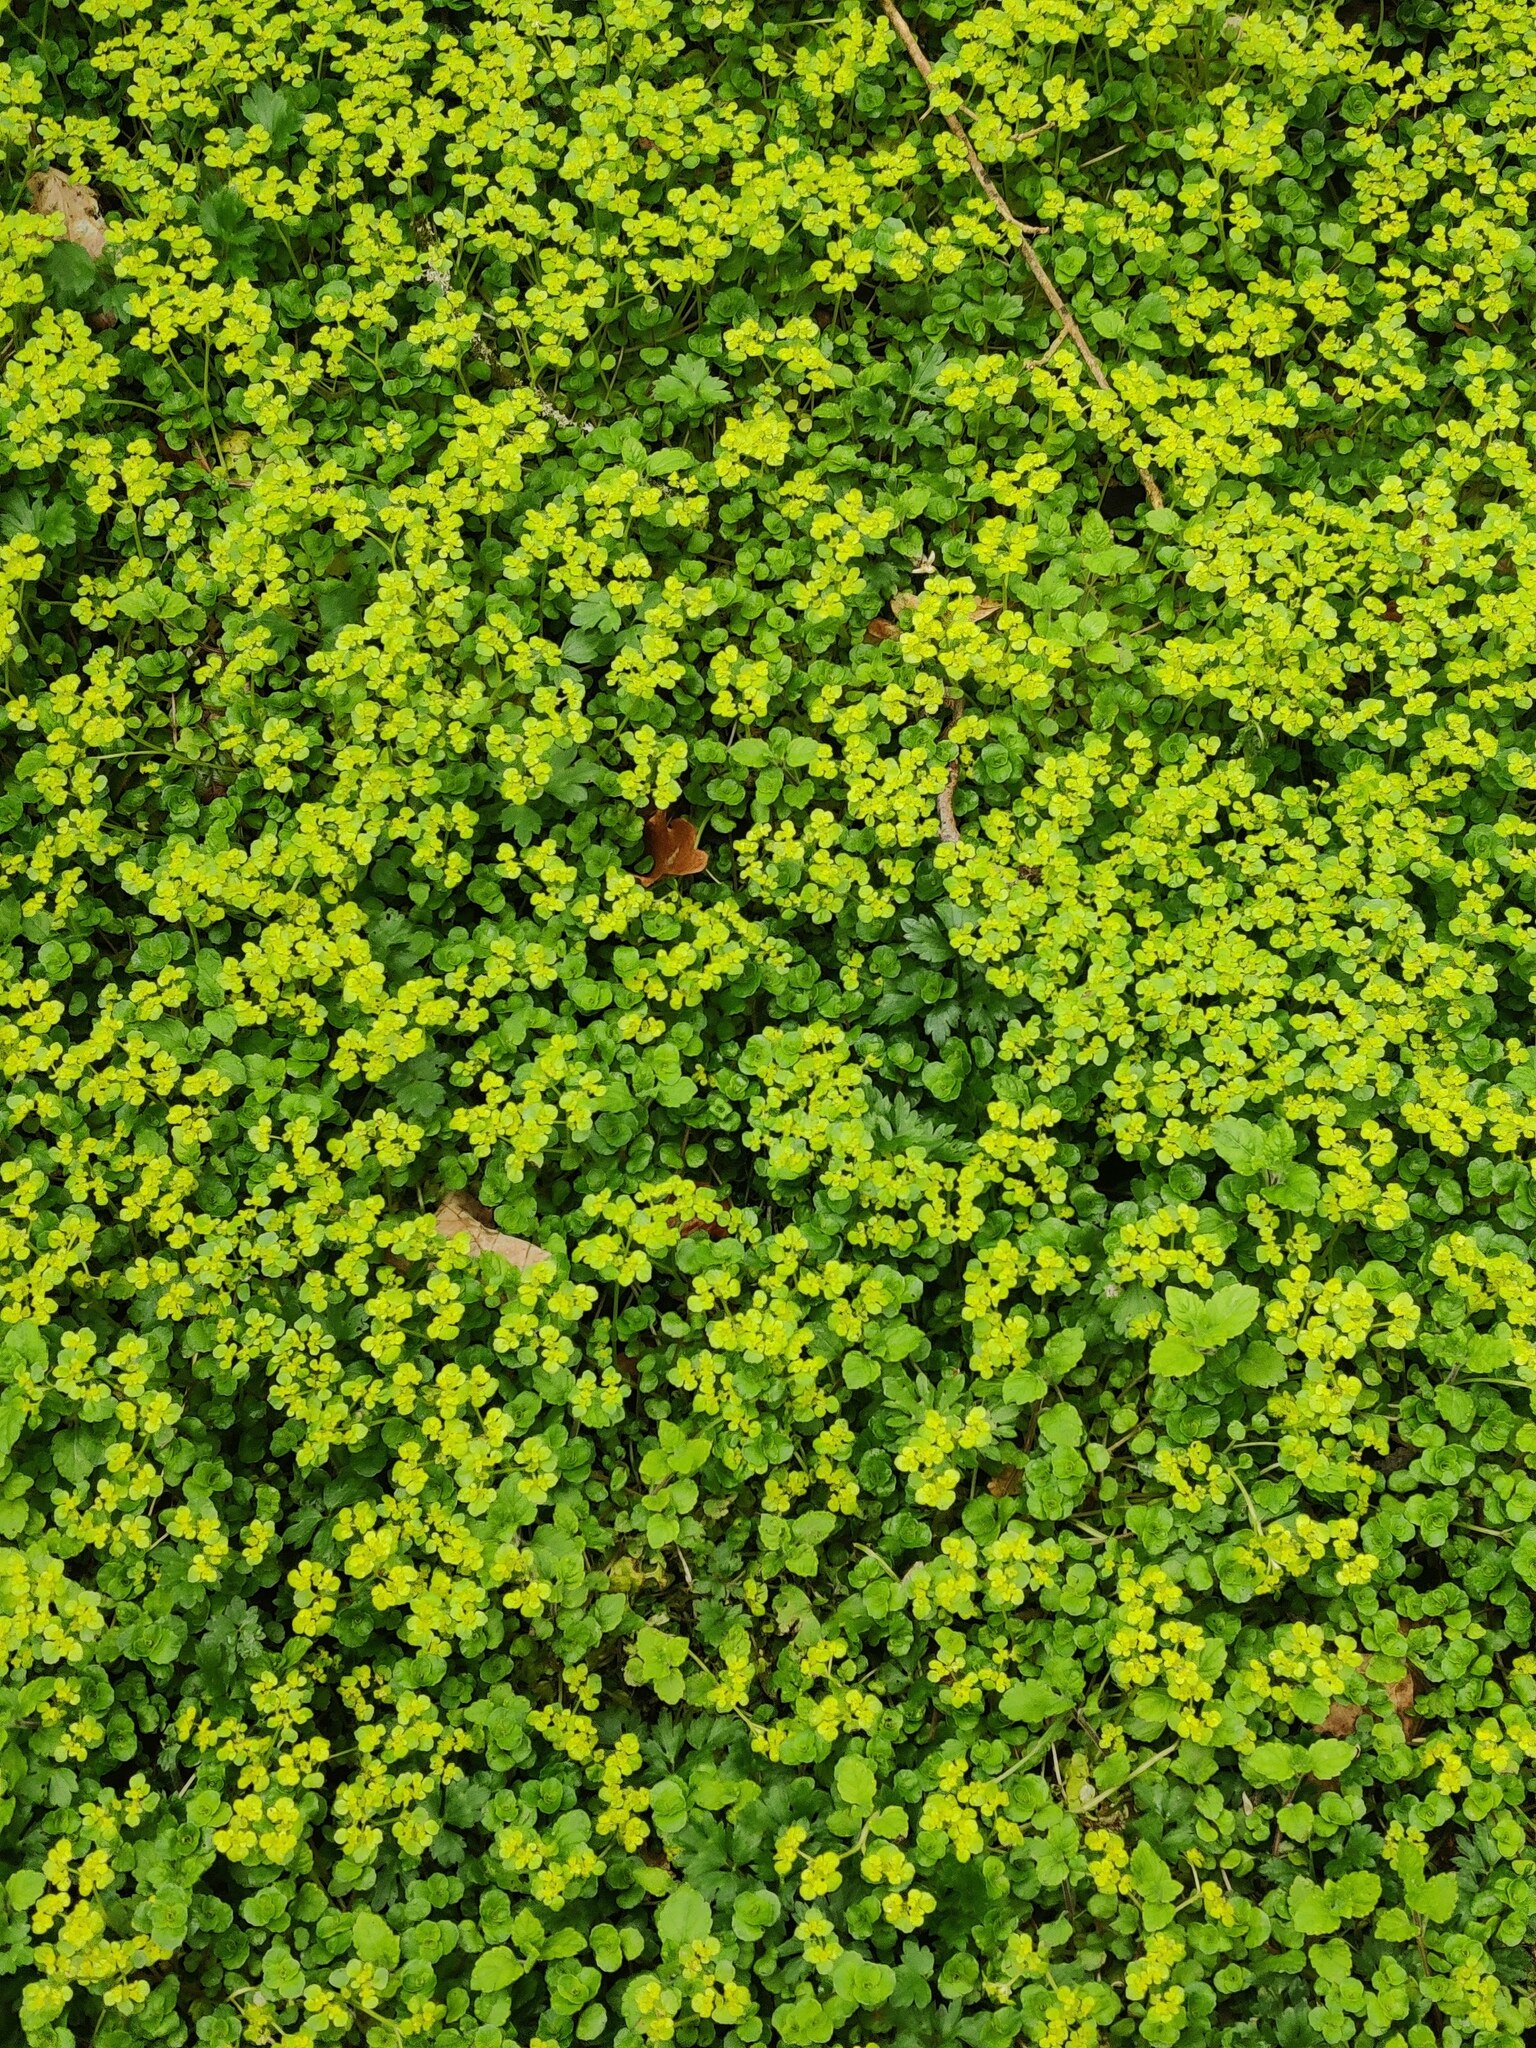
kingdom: Plantae
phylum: Tracheophyta
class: Magnoliopsida
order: Saxifragales
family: Saxifragaceae
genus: Chrysosplenium
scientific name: Chrysosplenium oppositifolium
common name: Opposite-leaved golden-saxifrage
